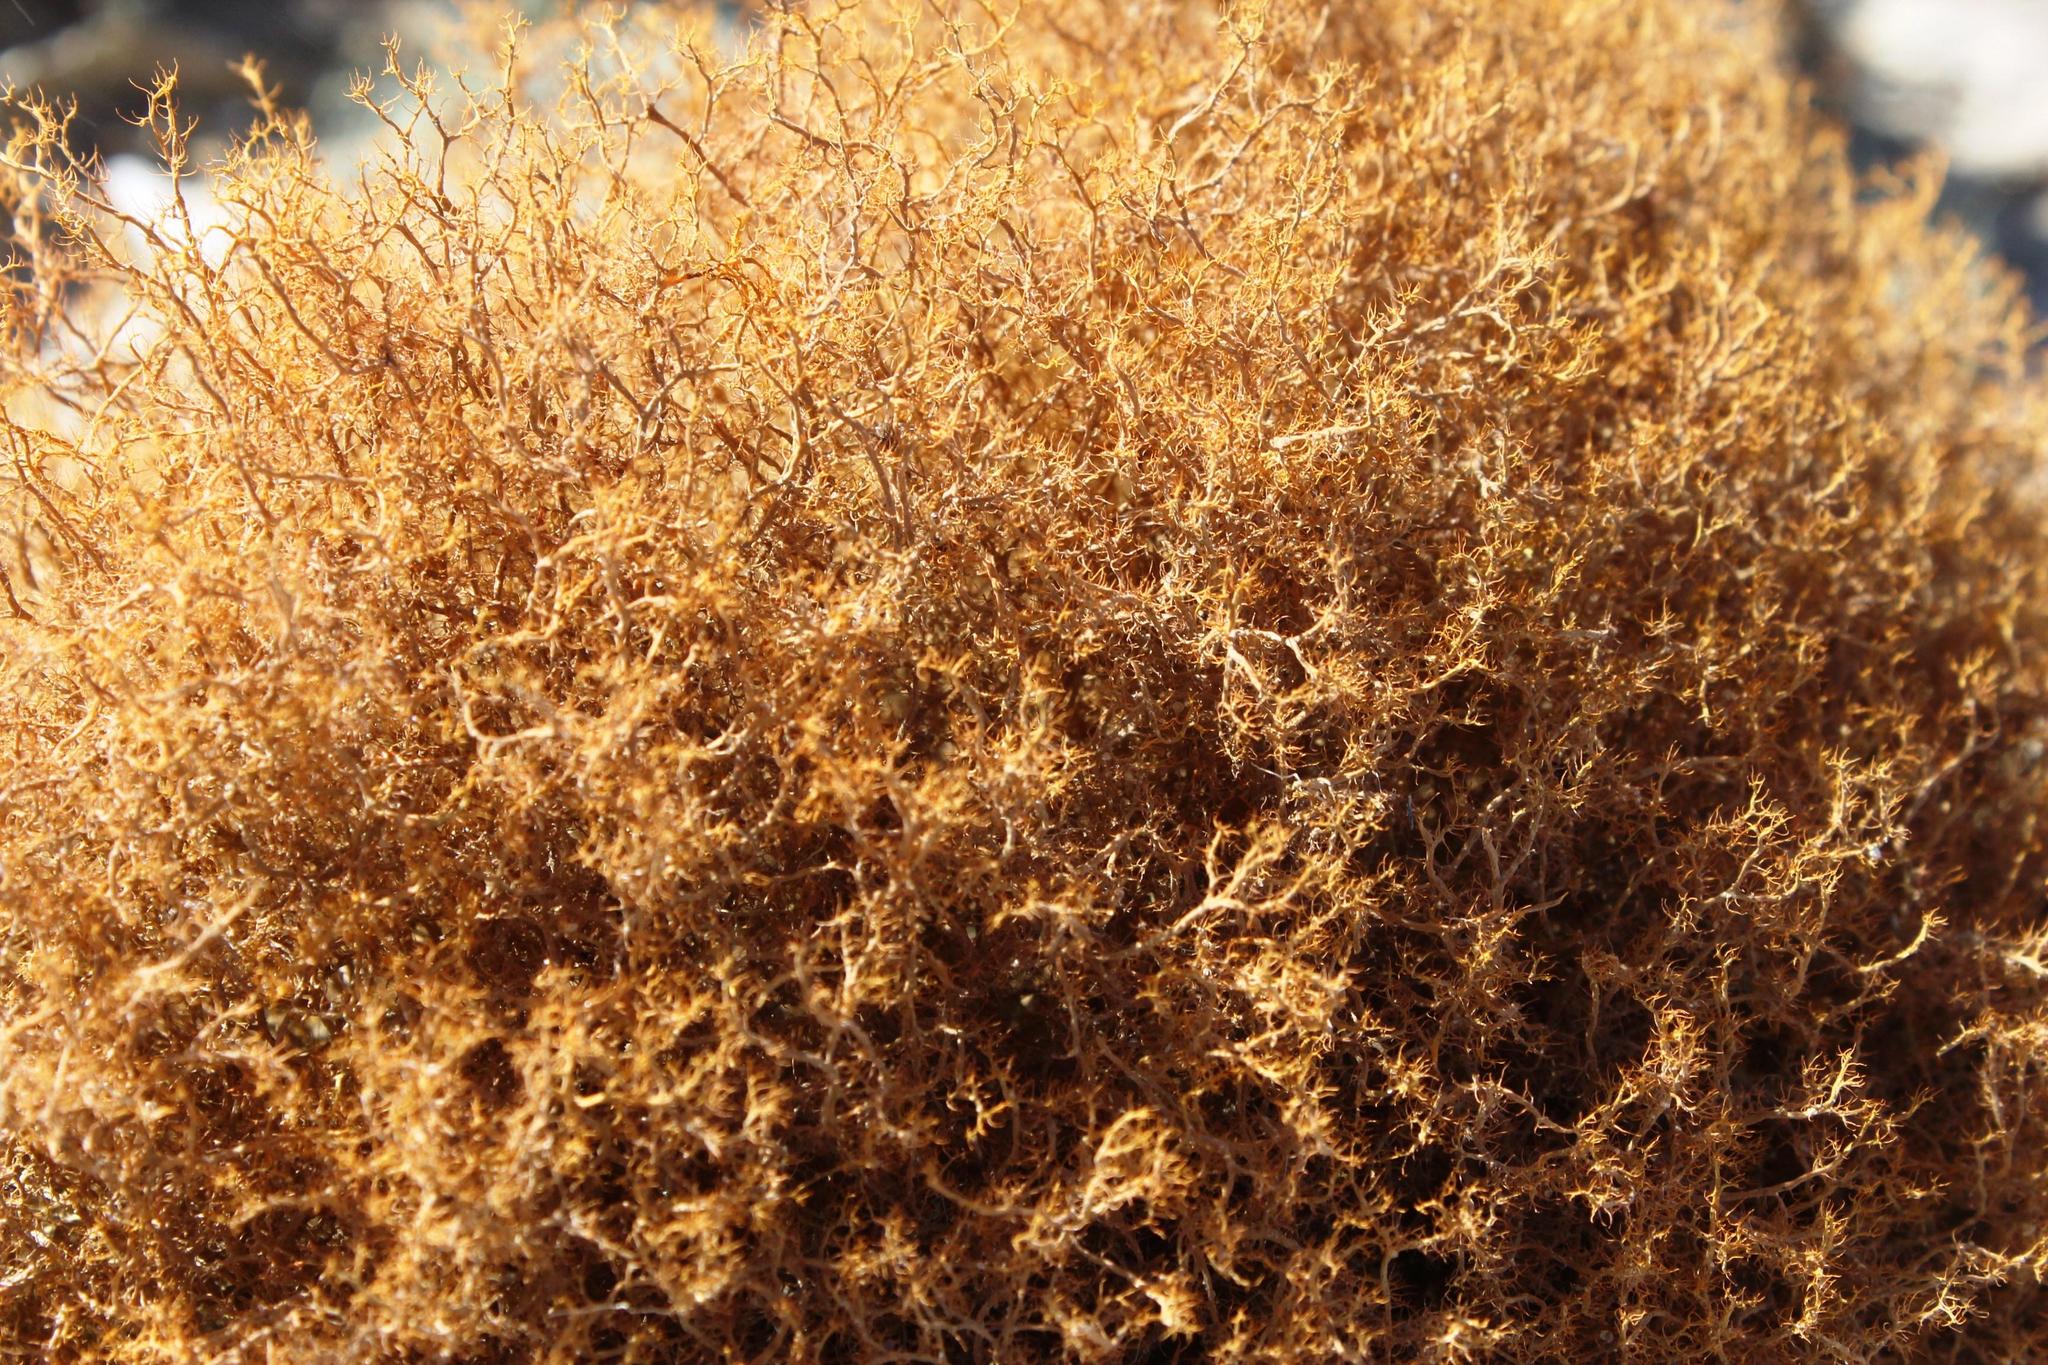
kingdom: Fungi
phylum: Ascomycota
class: Lecanoromycetes
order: Teloschistales
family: Teloschistaceae
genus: Teloschistes
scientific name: Teloschistes capensis
